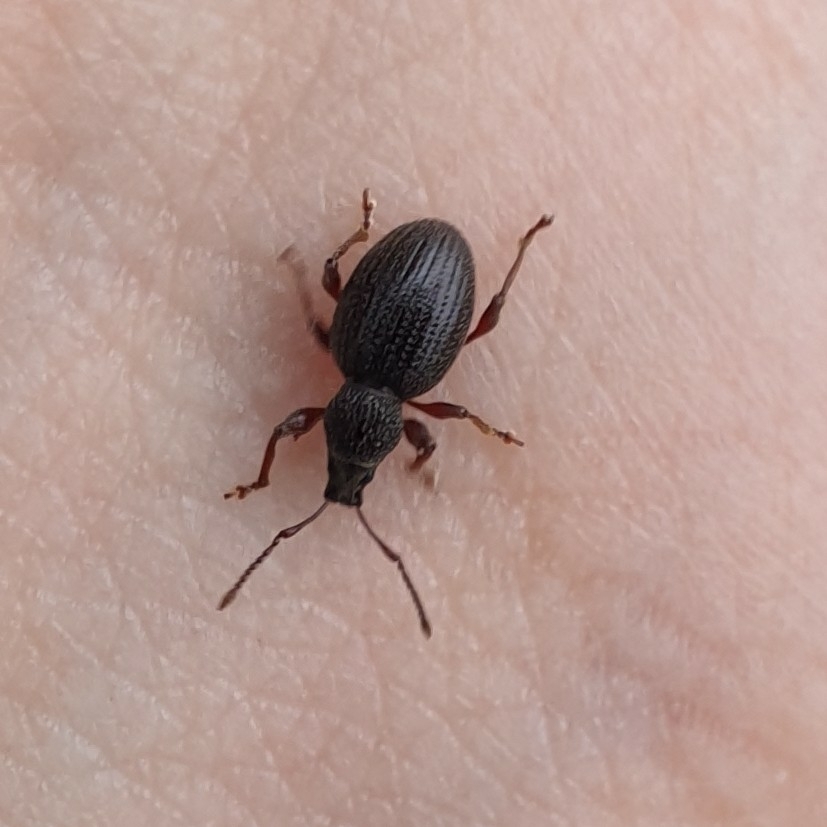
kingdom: Animalia
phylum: Arthropoda
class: Insecta
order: Coleoptera
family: Curculionidae
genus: Otiorhynchus
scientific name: Otiorhynchus ovatus
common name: Strawberry root weevil
